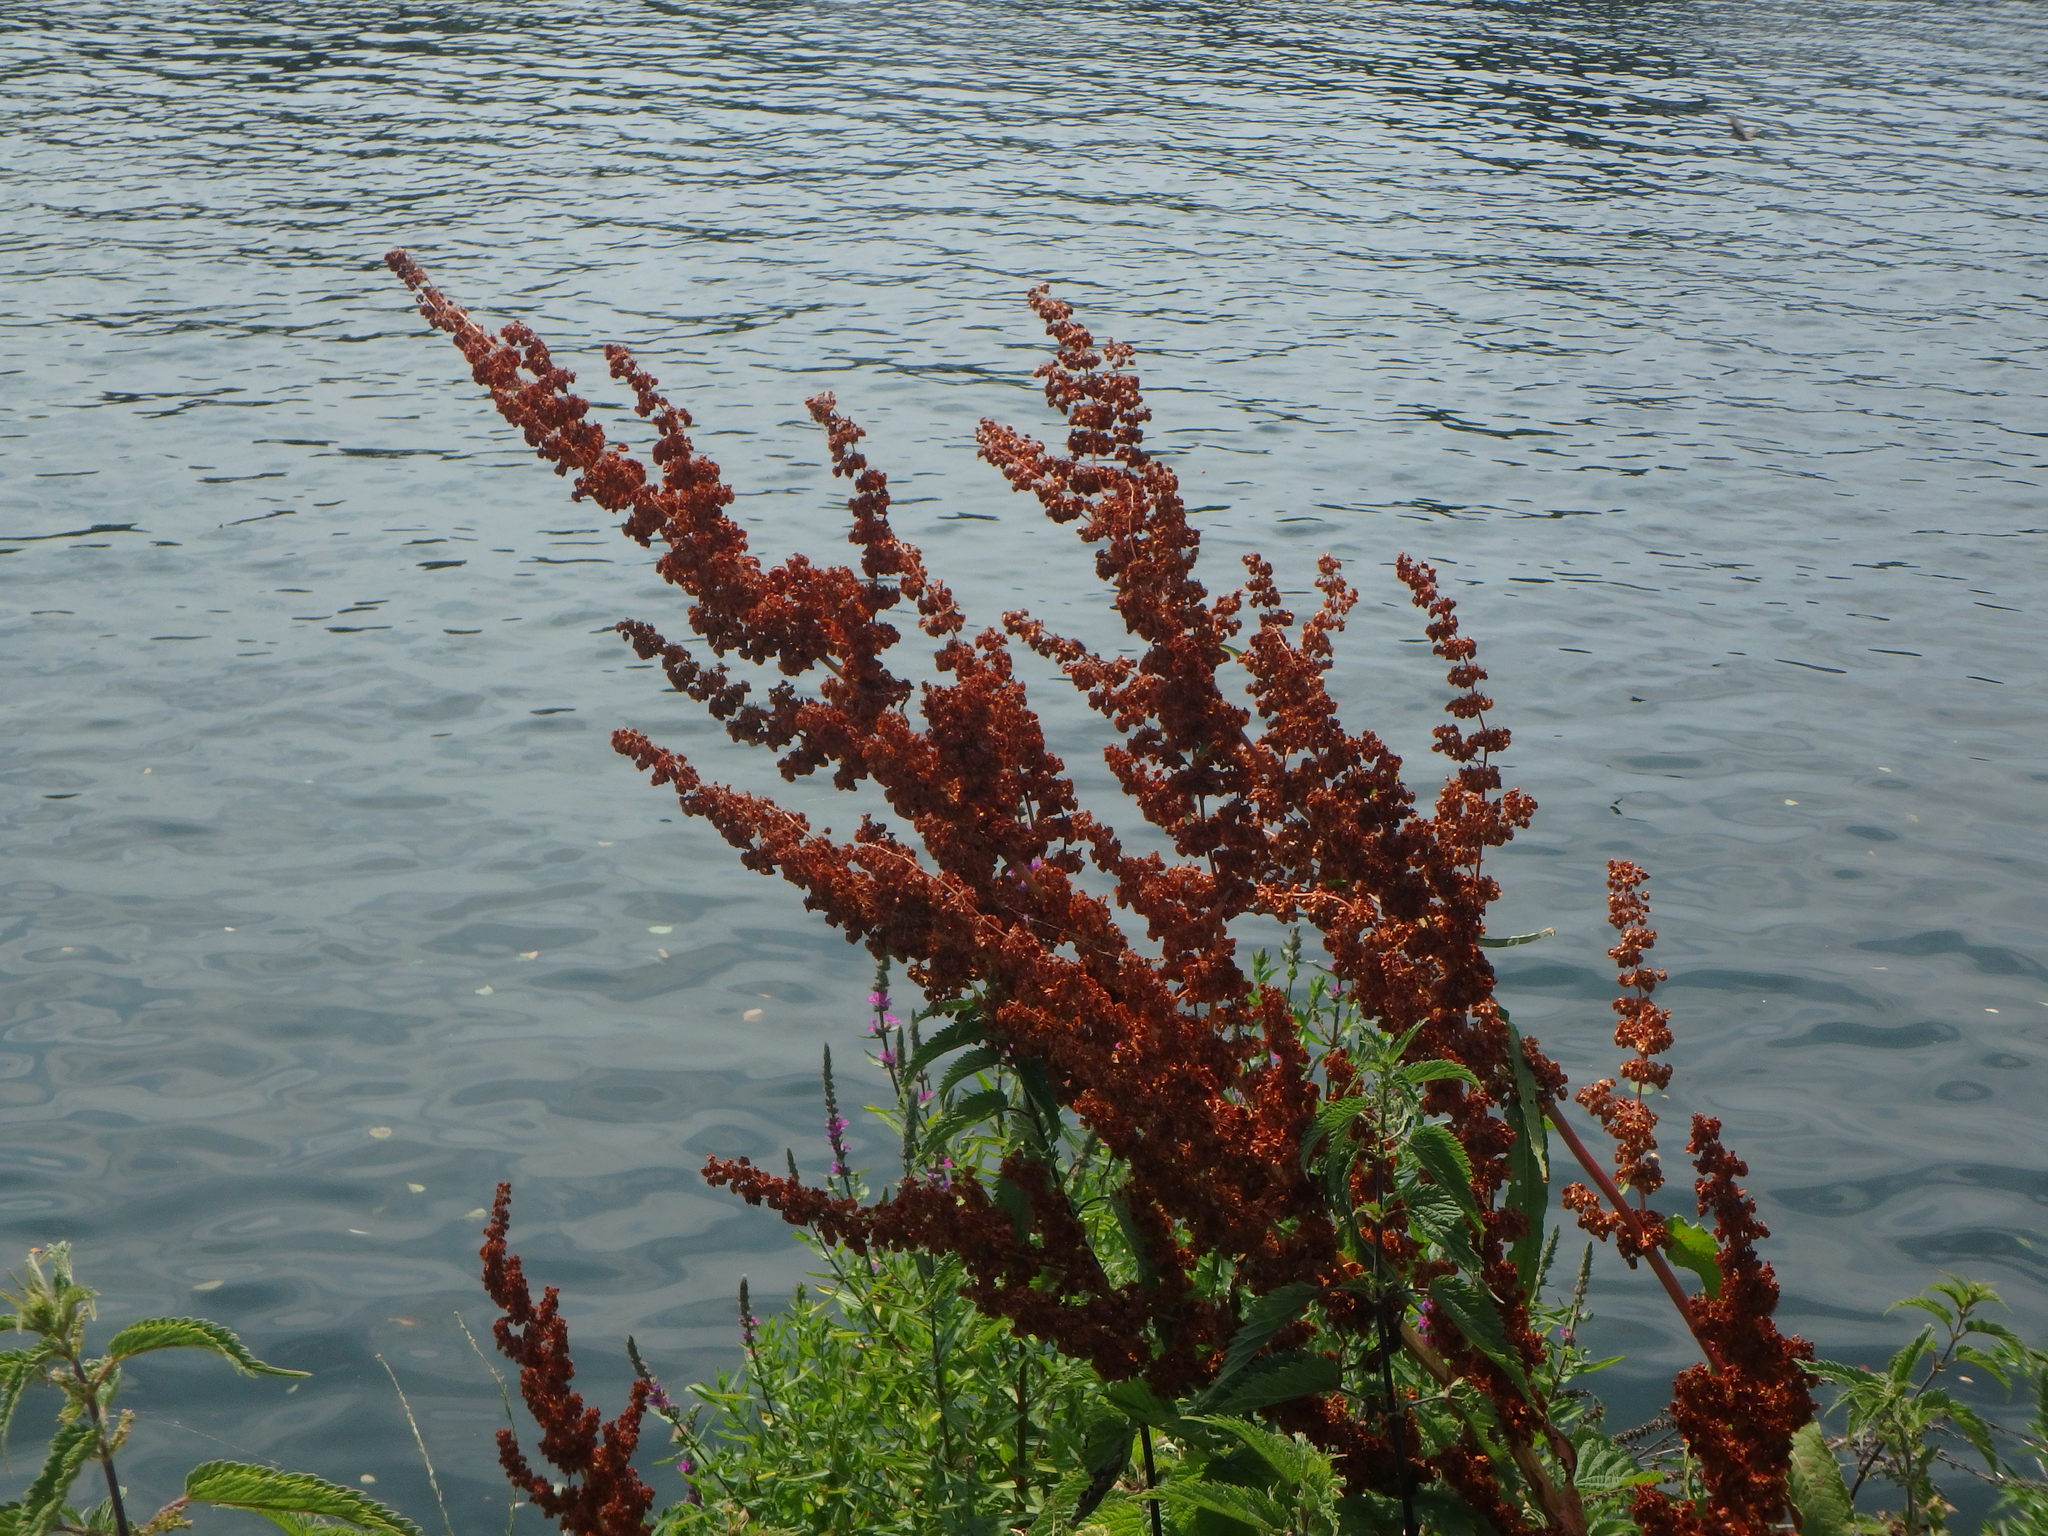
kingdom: Plantae
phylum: Tracheophyta
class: Magnoliopsida
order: Caryophyllales
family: Polygonaceae
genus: Rumex
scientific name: Rumex cristatus
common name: Greek dock
